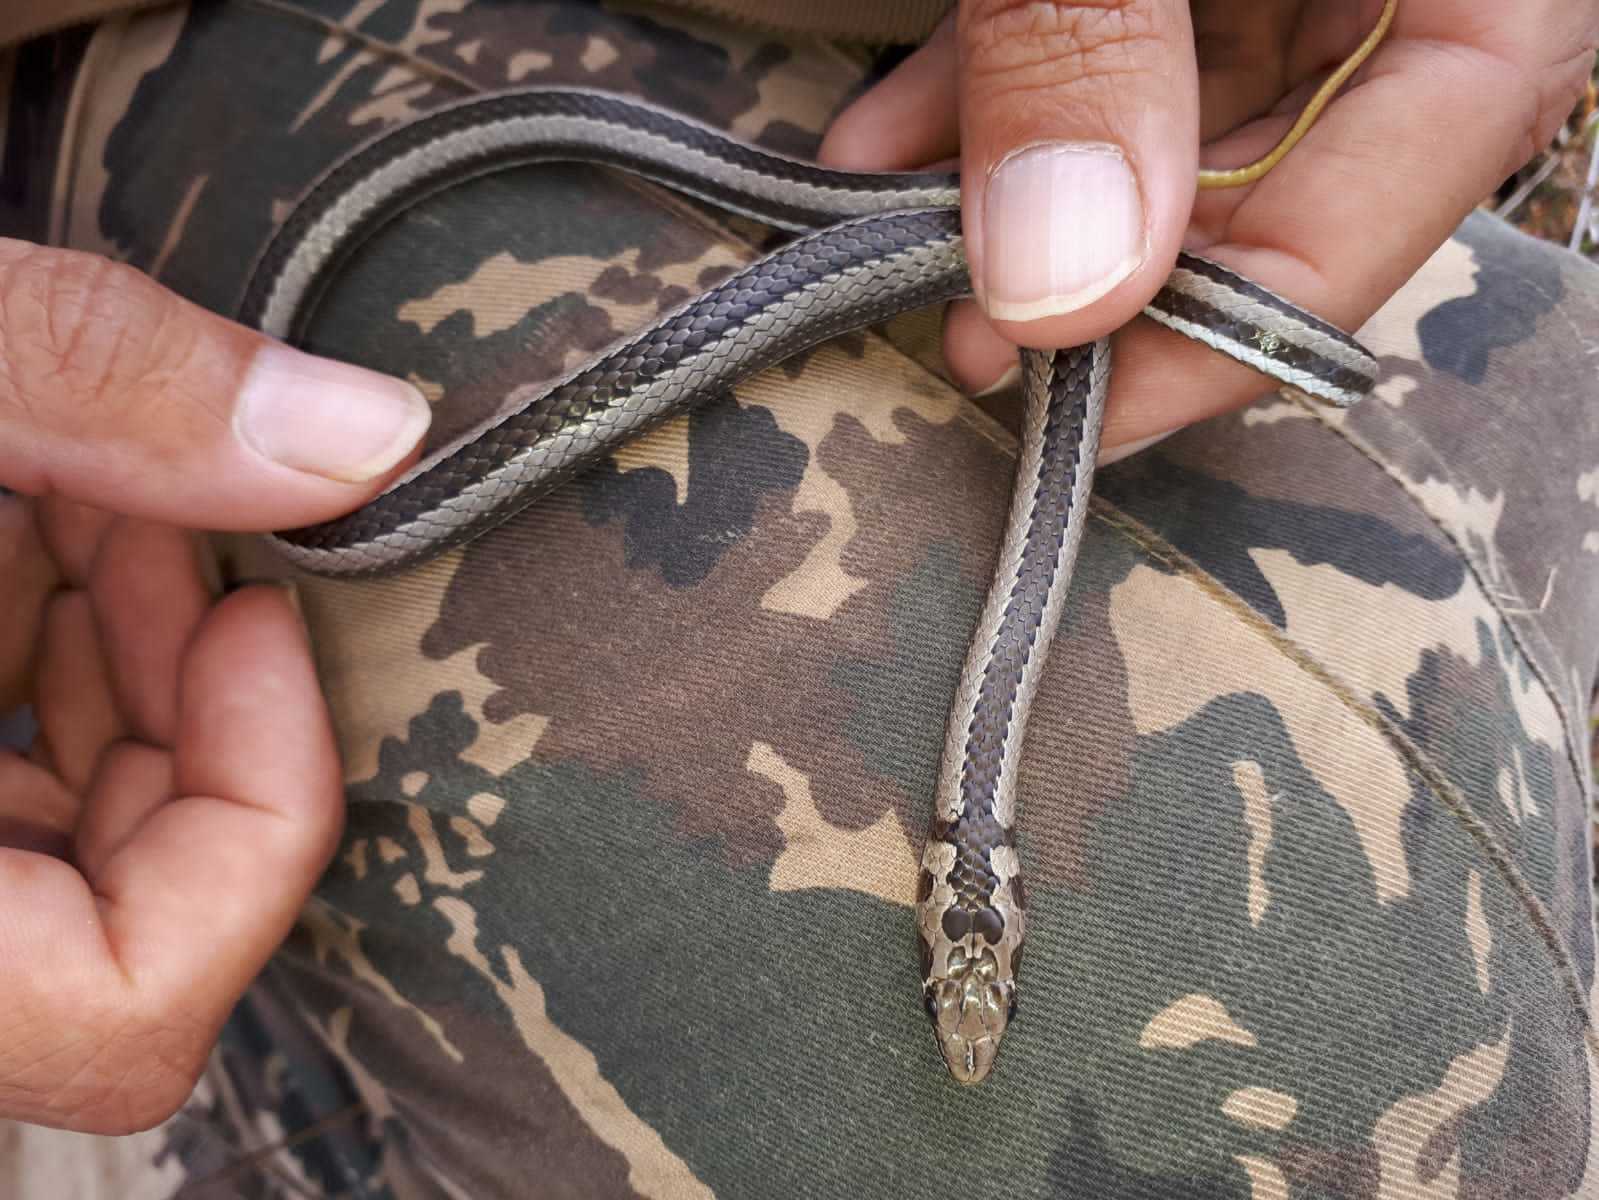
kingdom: Animalia
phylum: Chordata
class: Squamata
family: Psammophiidae
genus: Psammophis
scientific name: Psammophis crucifer
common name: Cross-marked grass snake
